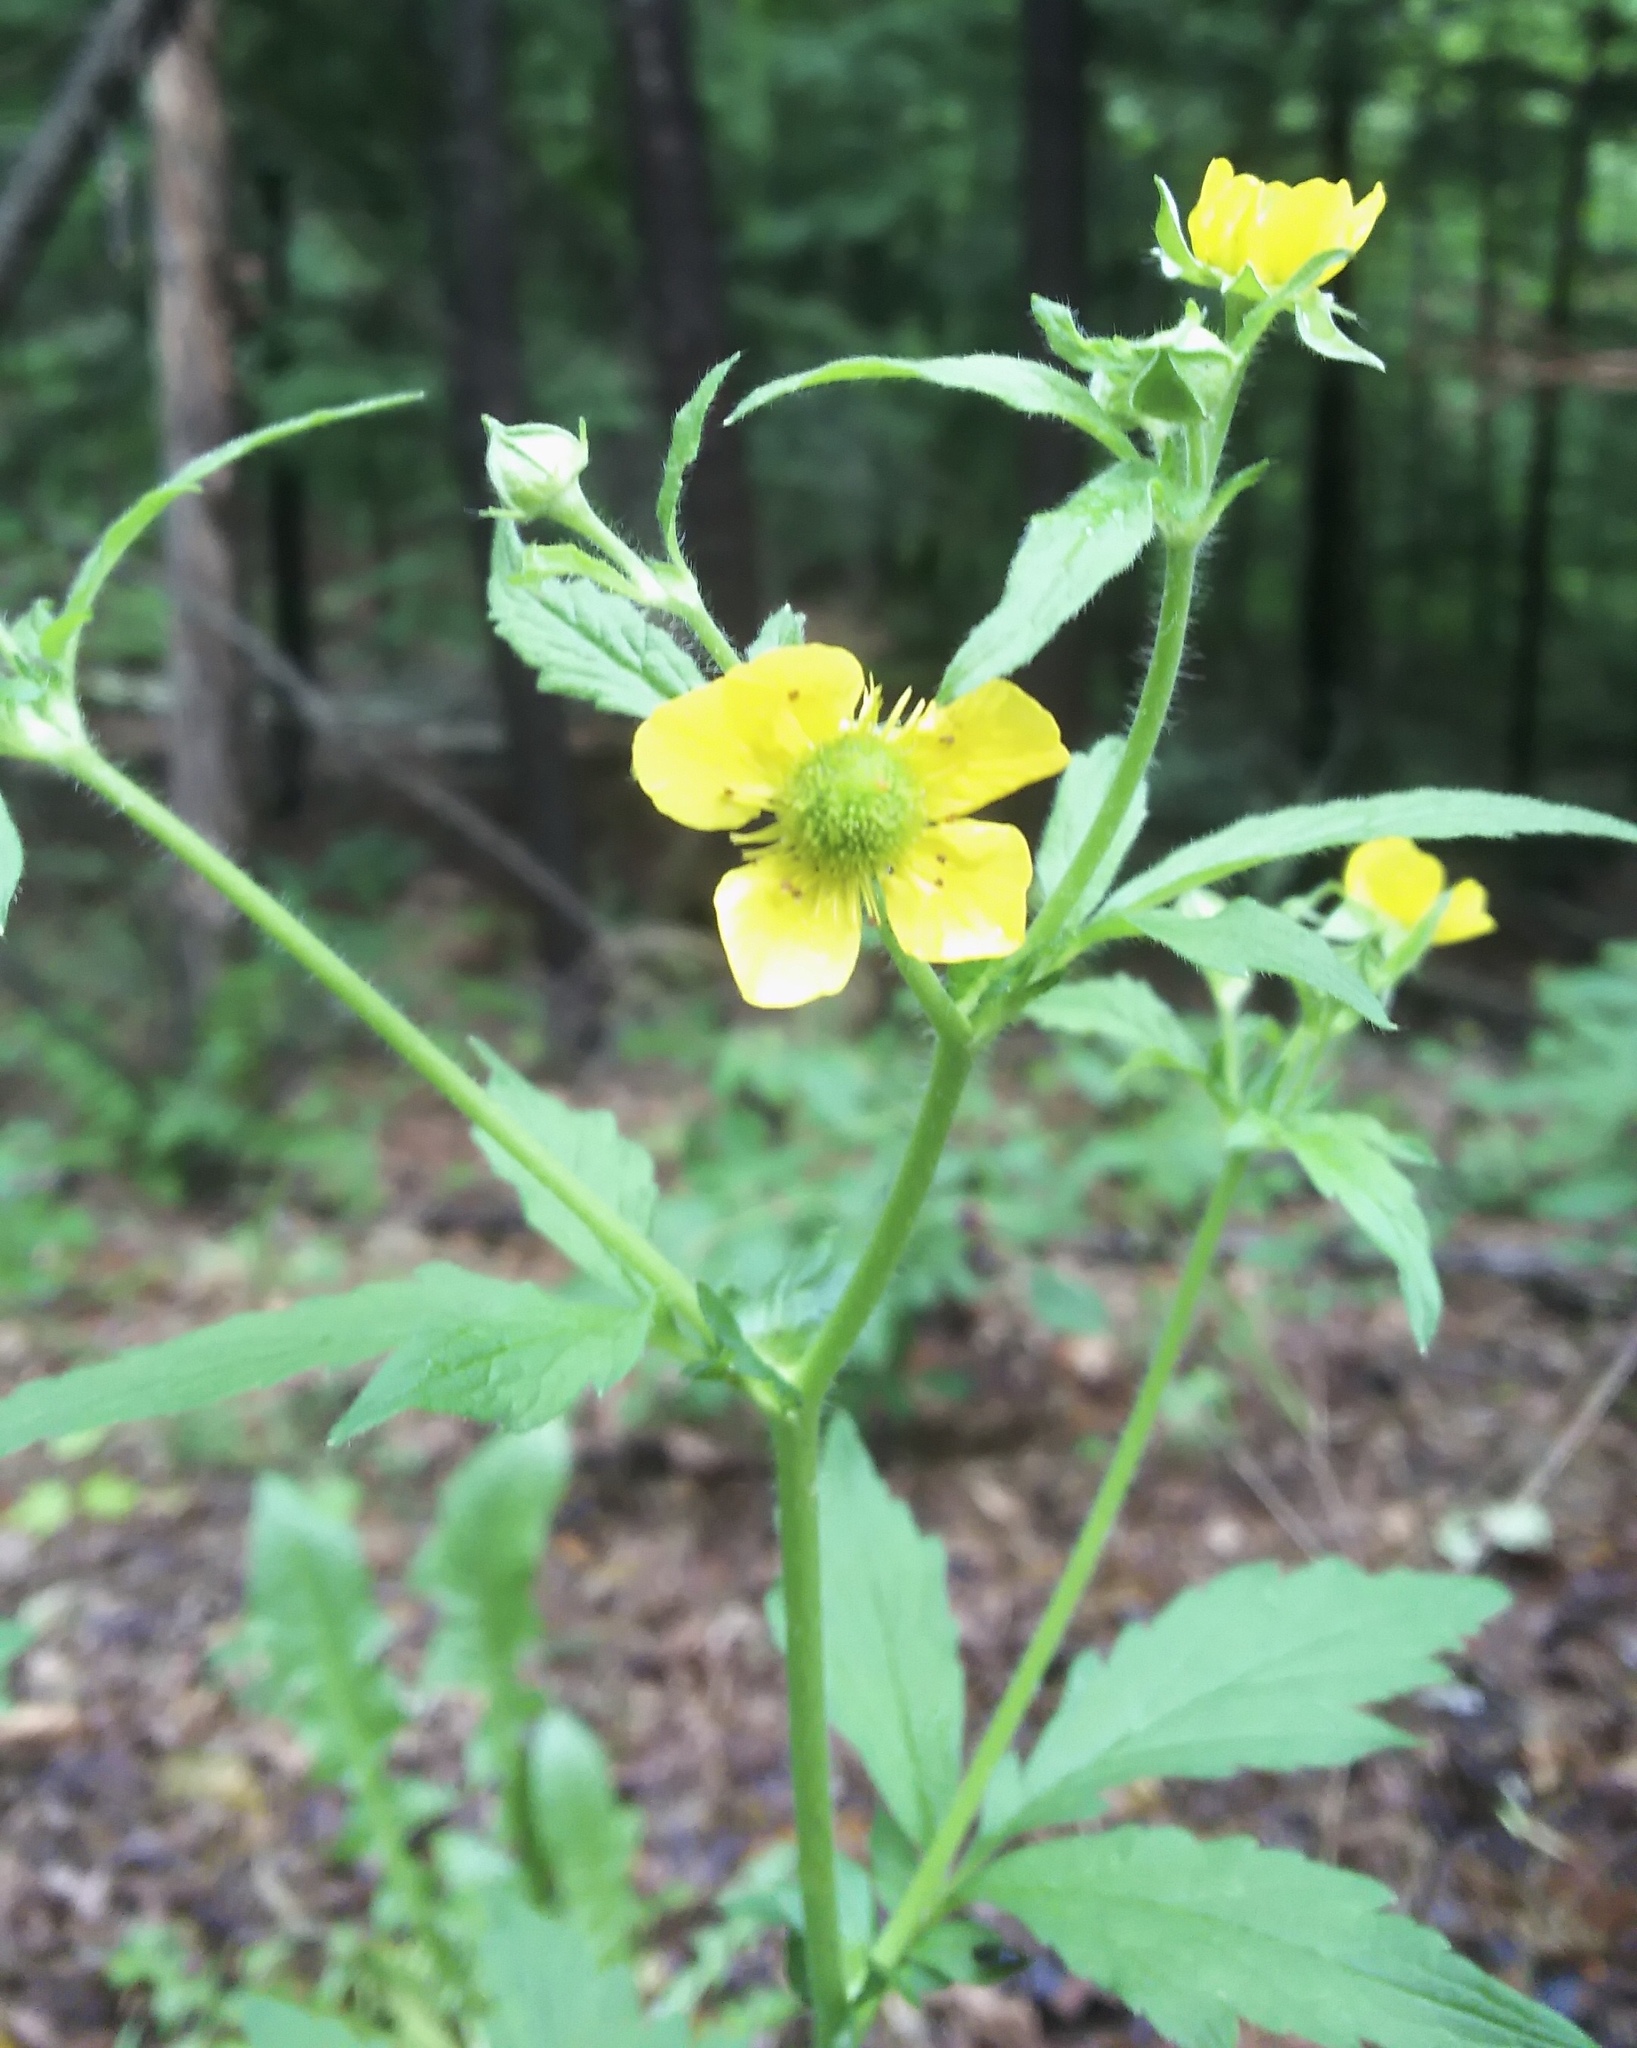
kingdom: Plantae
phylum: Tracheophyta
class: Magnoliopsida
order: Rosales
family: Rosaceae
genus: Geum
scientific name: Geum aleppicum
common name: Yellow avens
